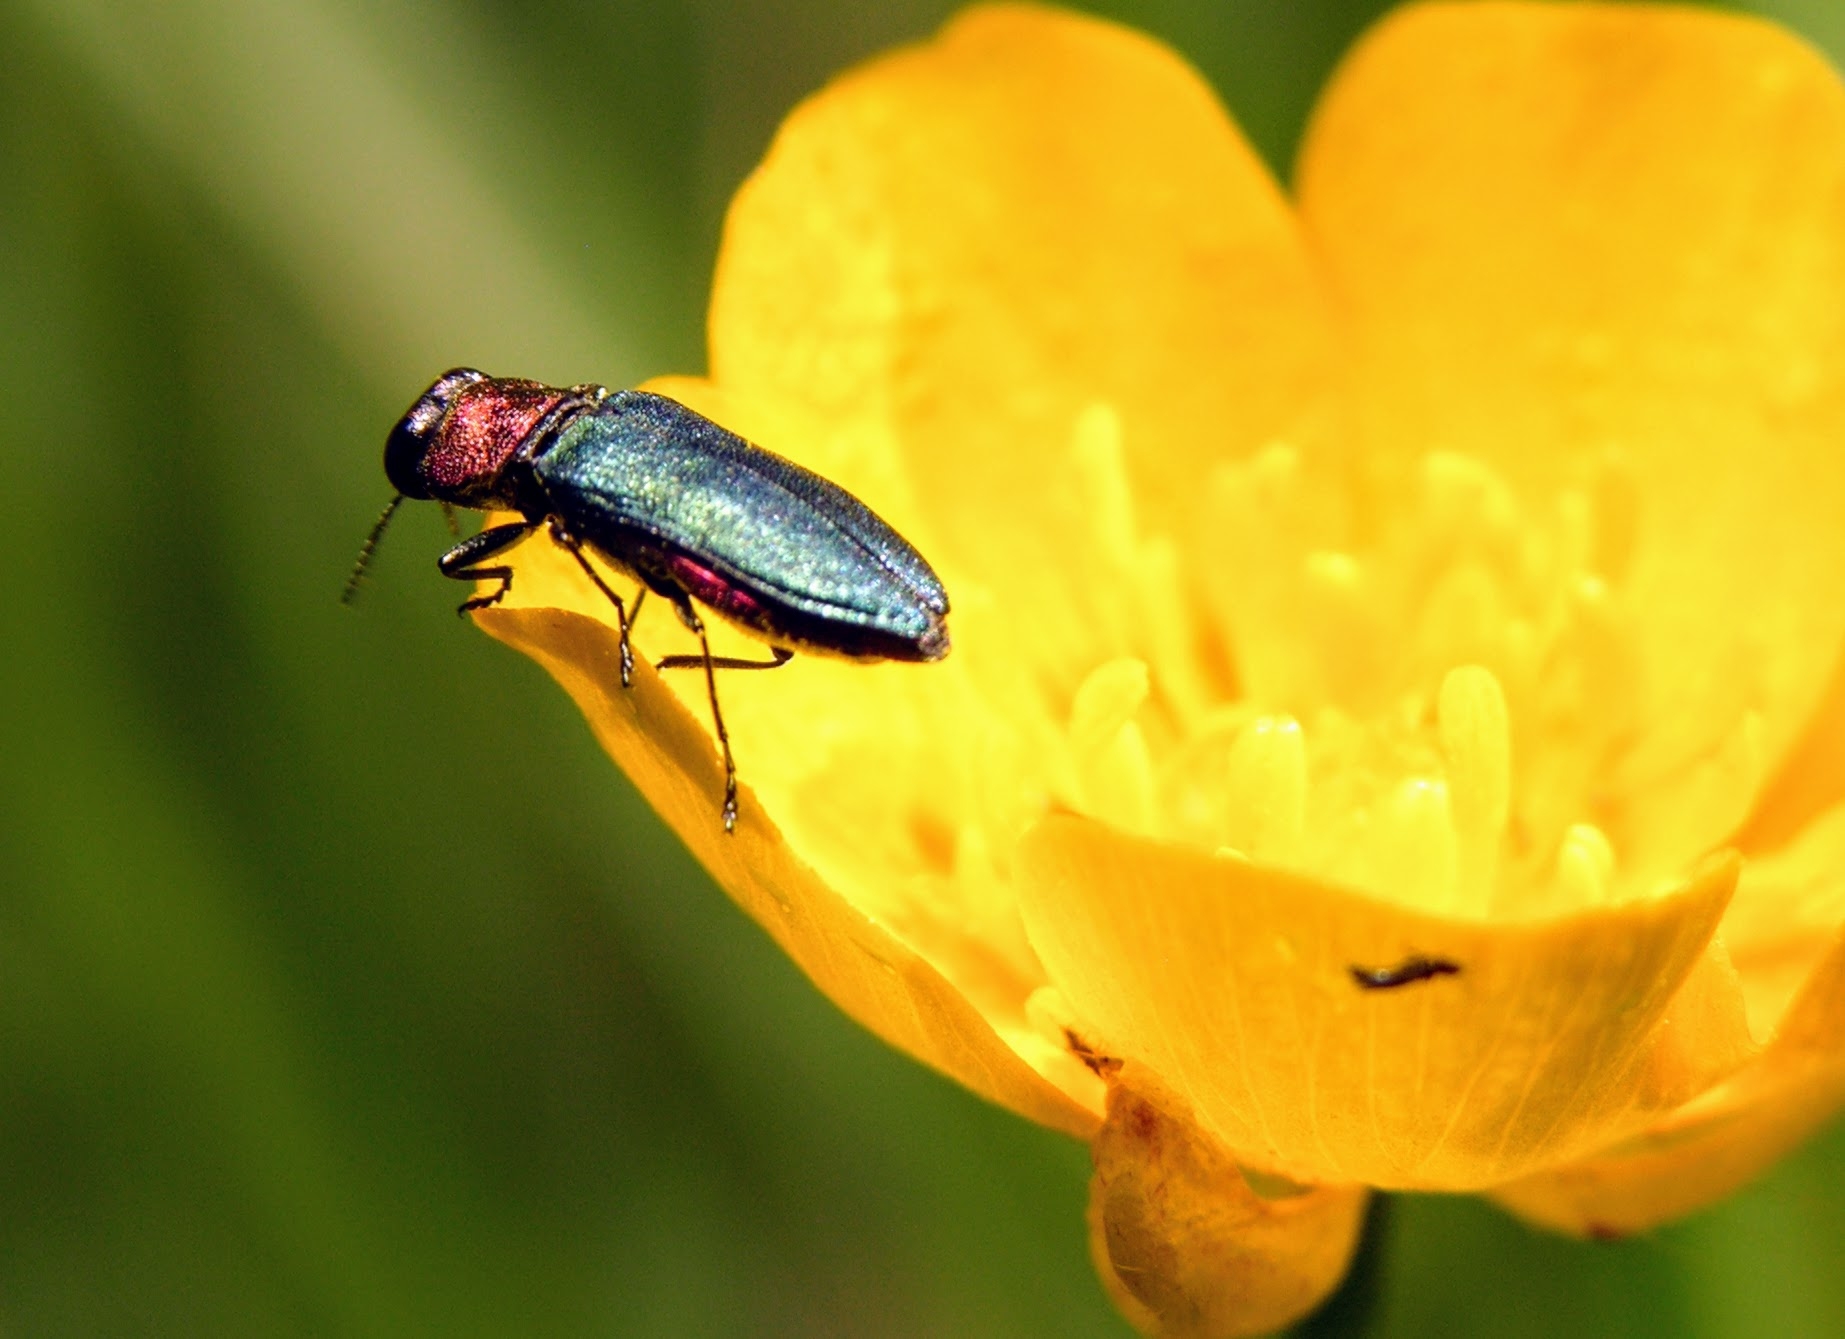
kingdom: Animalia
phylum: Arthropoda
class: Insecta
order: Coleoptera
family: Buprestidae
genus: Anthaxia
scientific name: Anthaxia nitidula
